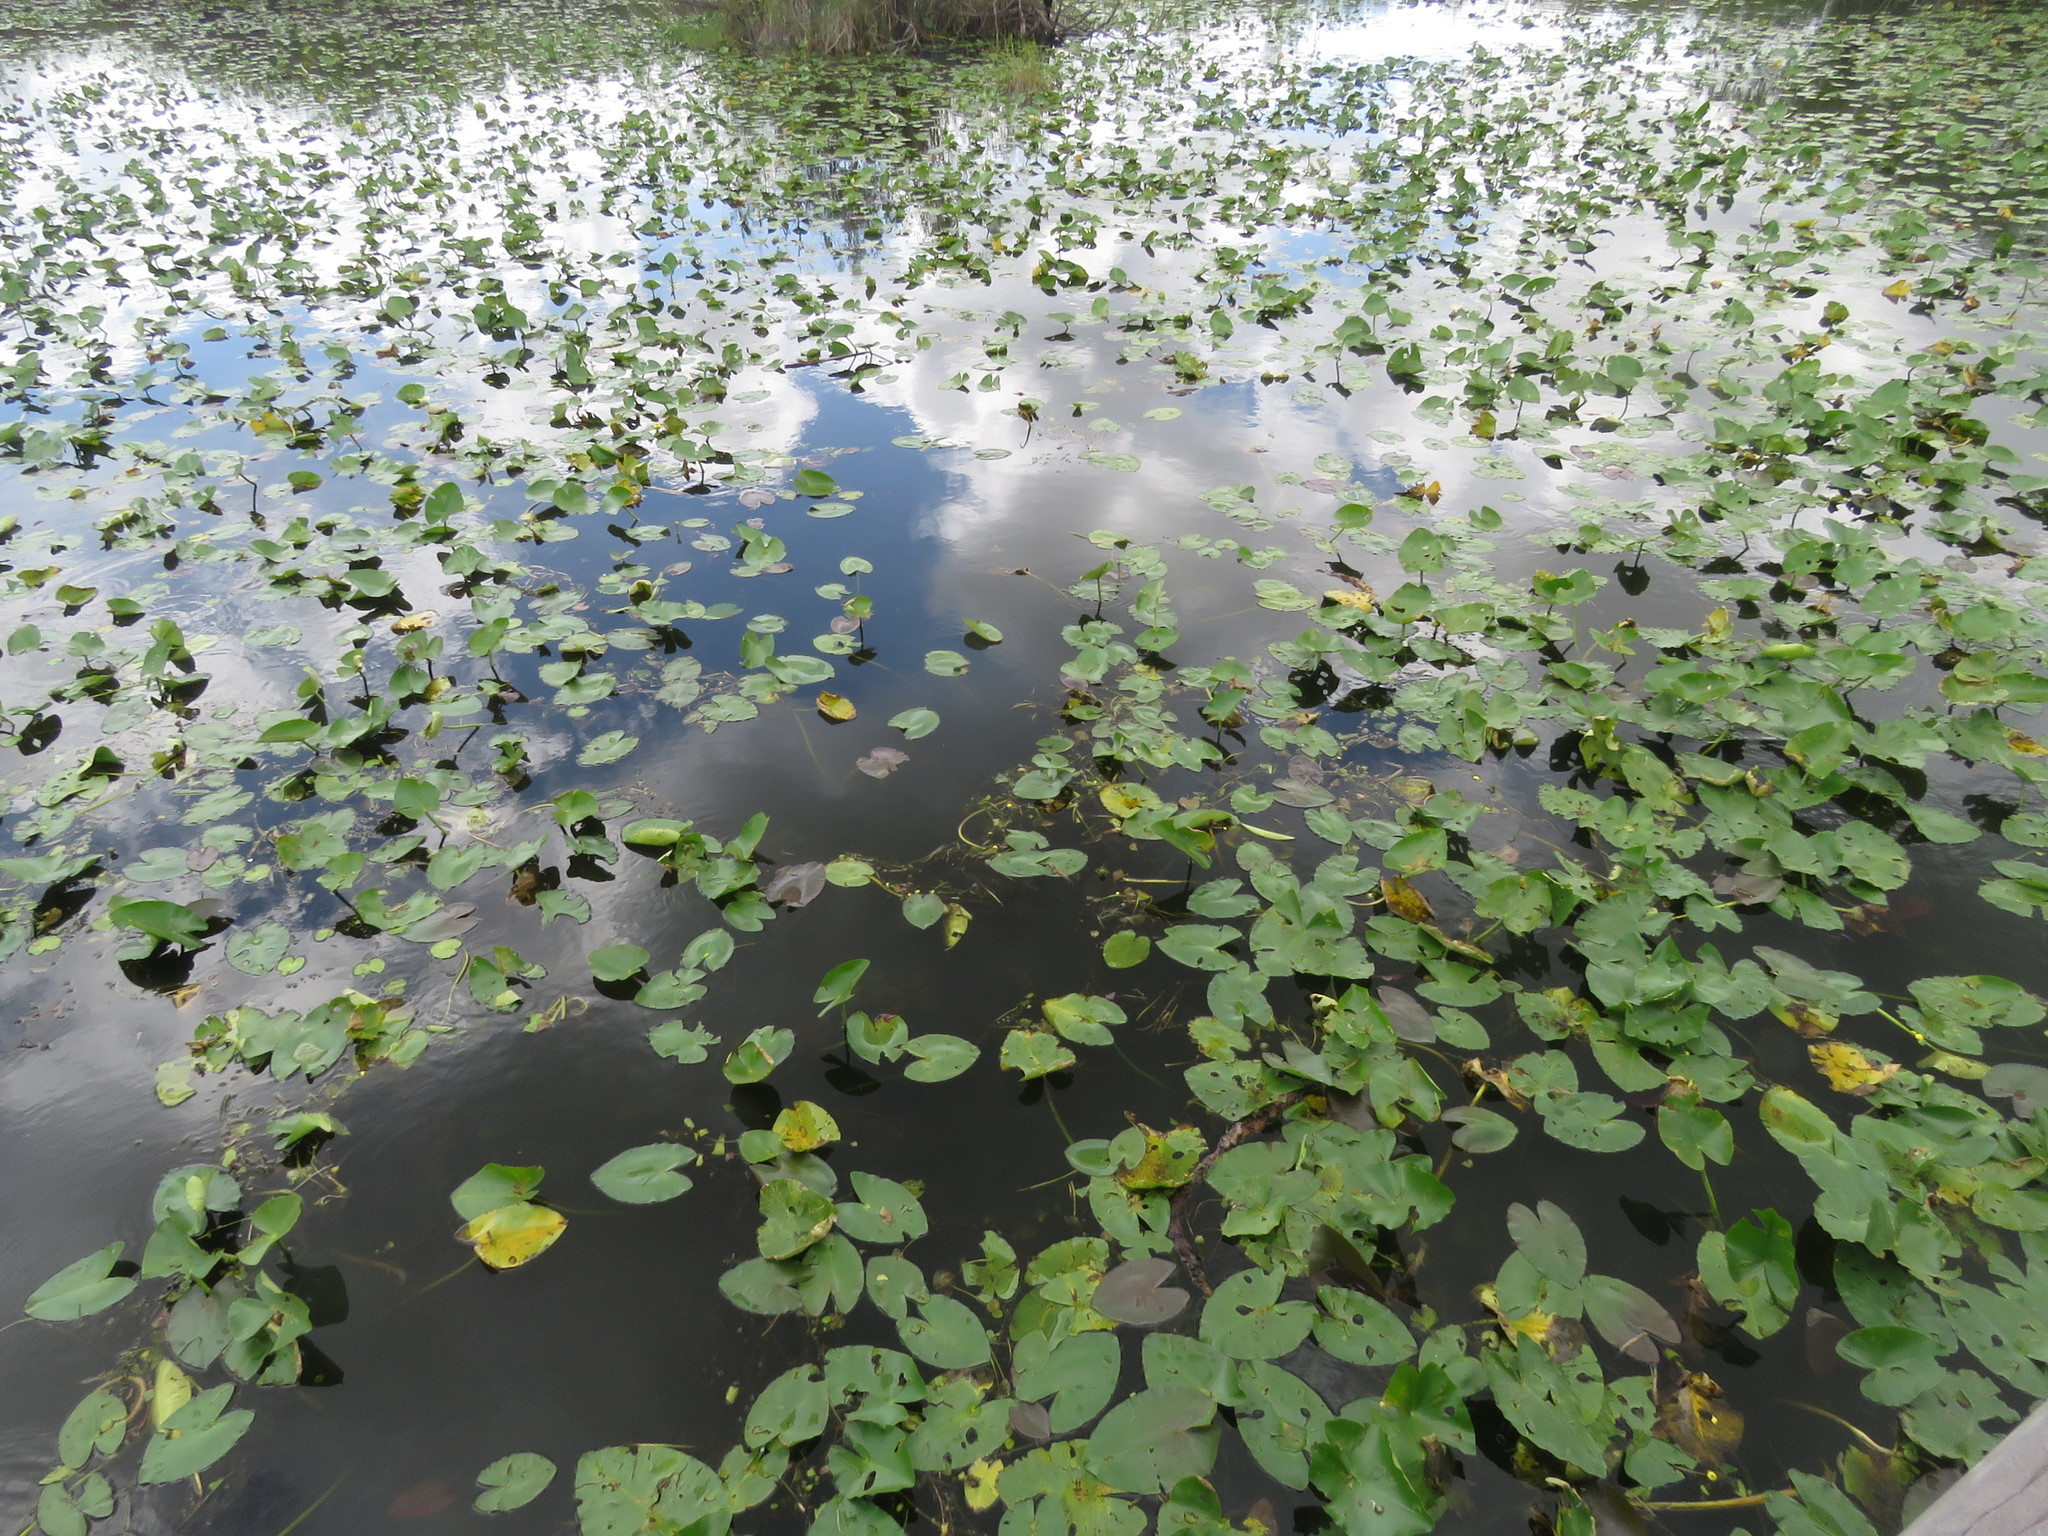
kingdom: Plantae
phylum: Tracheophyta
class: Magnoliopsida
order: Nymphaeales
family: Nymphaeaceae
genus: Nuphar
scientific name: Nuphar advena
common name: Spatter-dock
